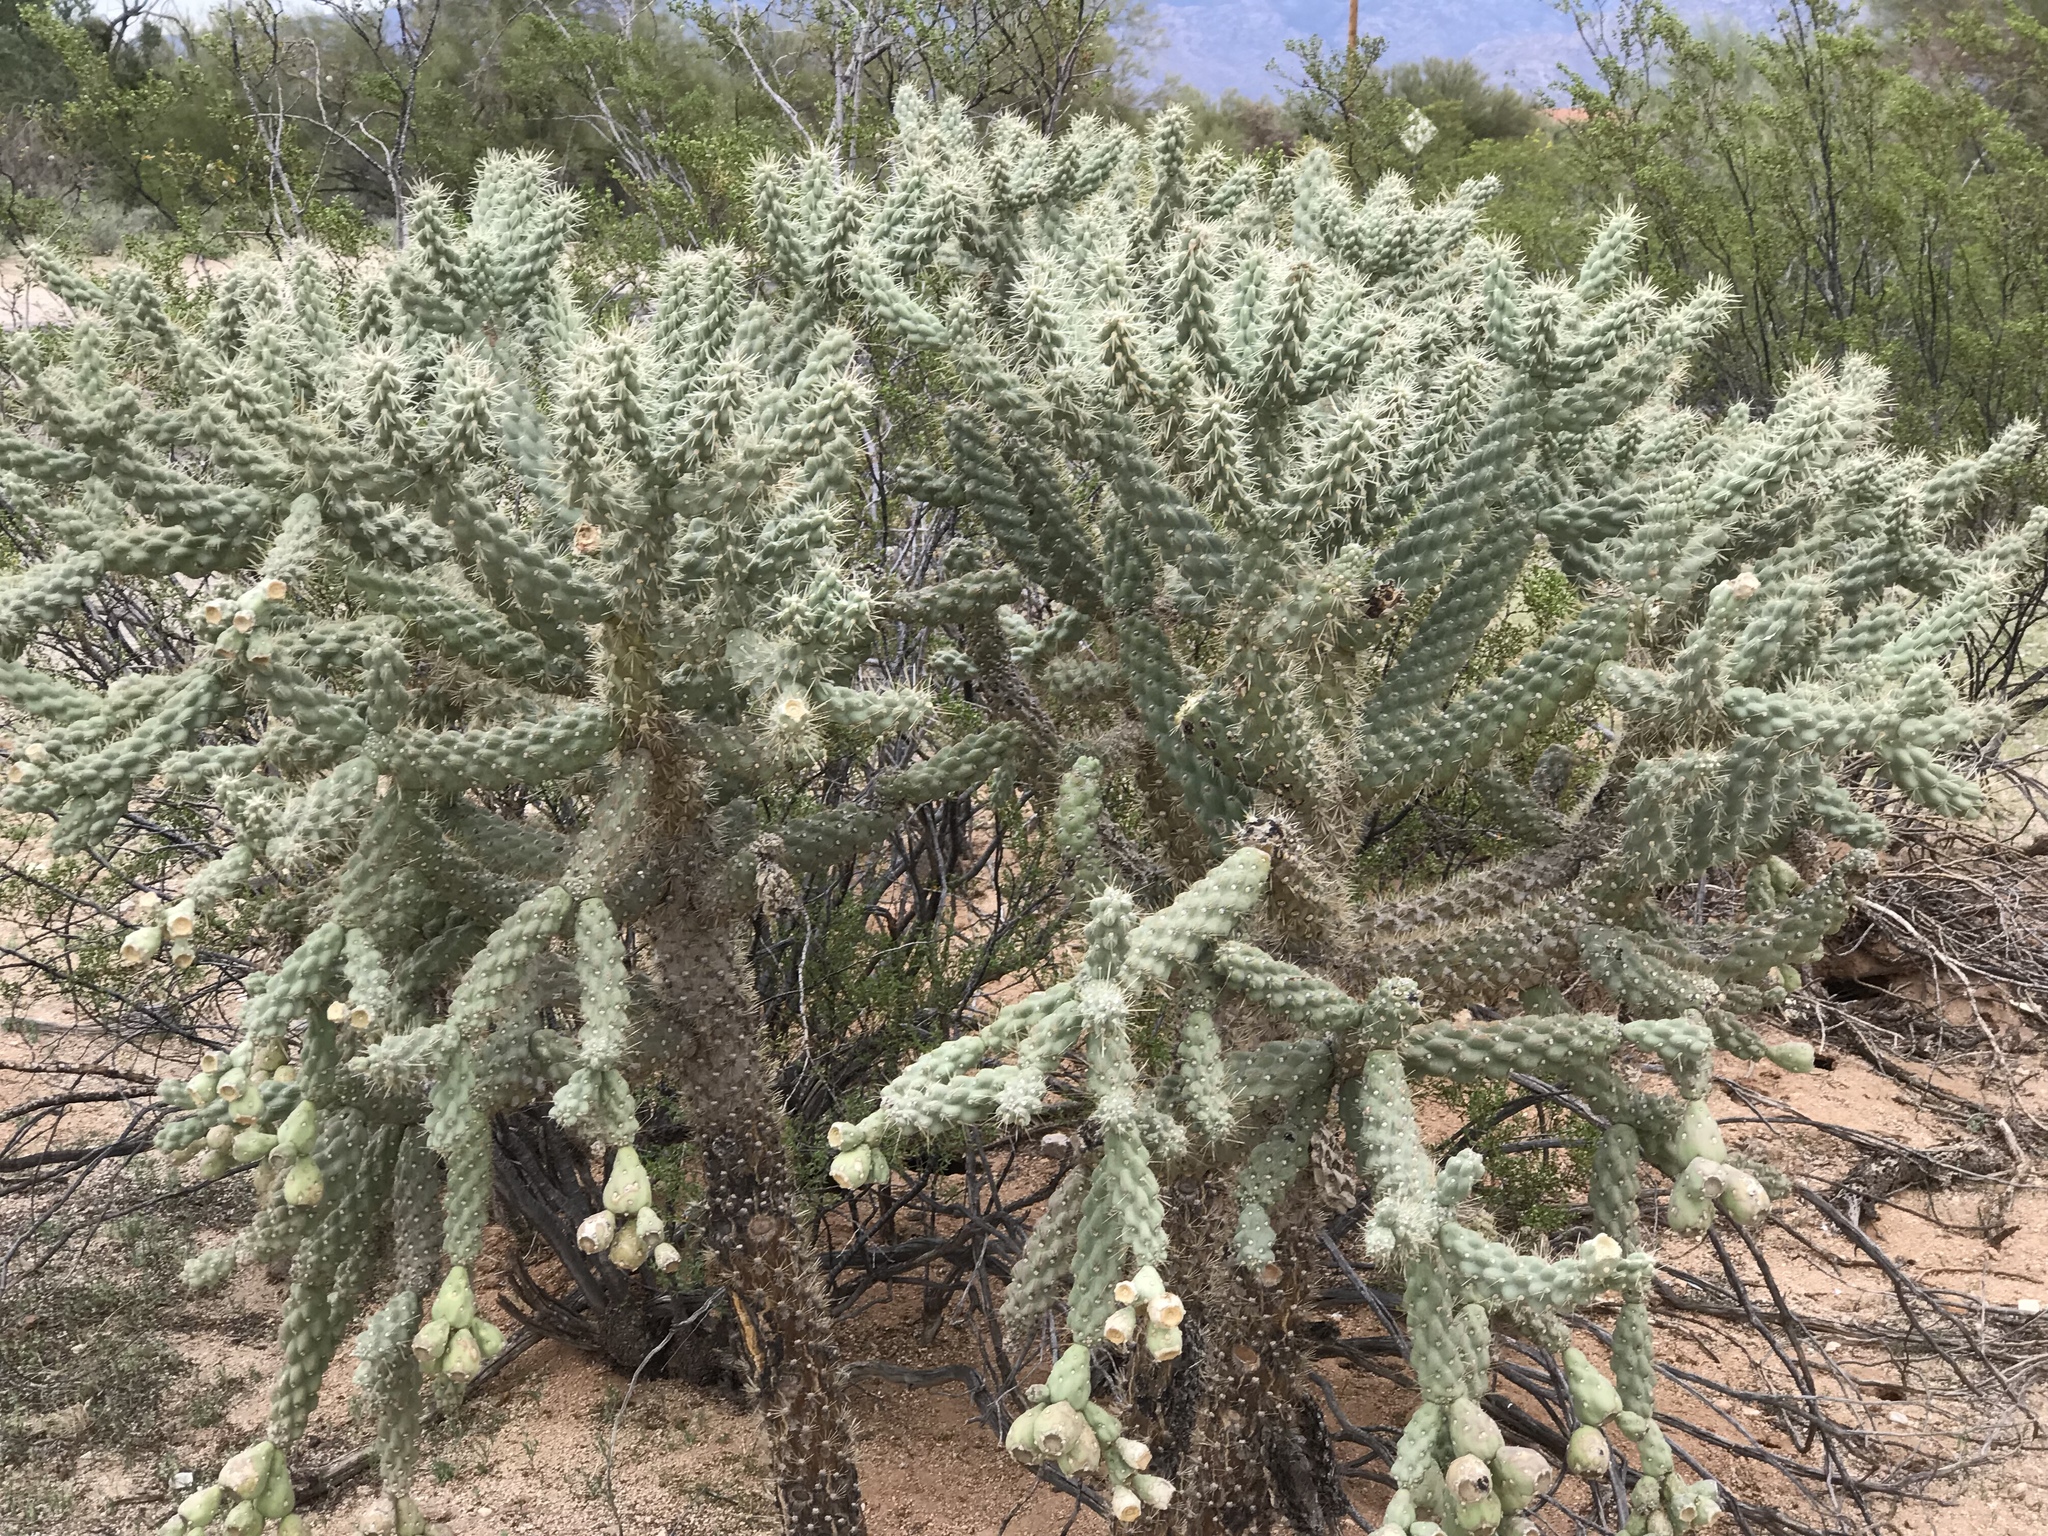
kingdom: Plantae
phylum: Tracheophyta
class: Magnoliopsida
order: Caryophyllales
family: Cactaceae
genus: Cylindropuntia
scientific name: Cylindropuntia fulgida
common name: Jumping cholla
